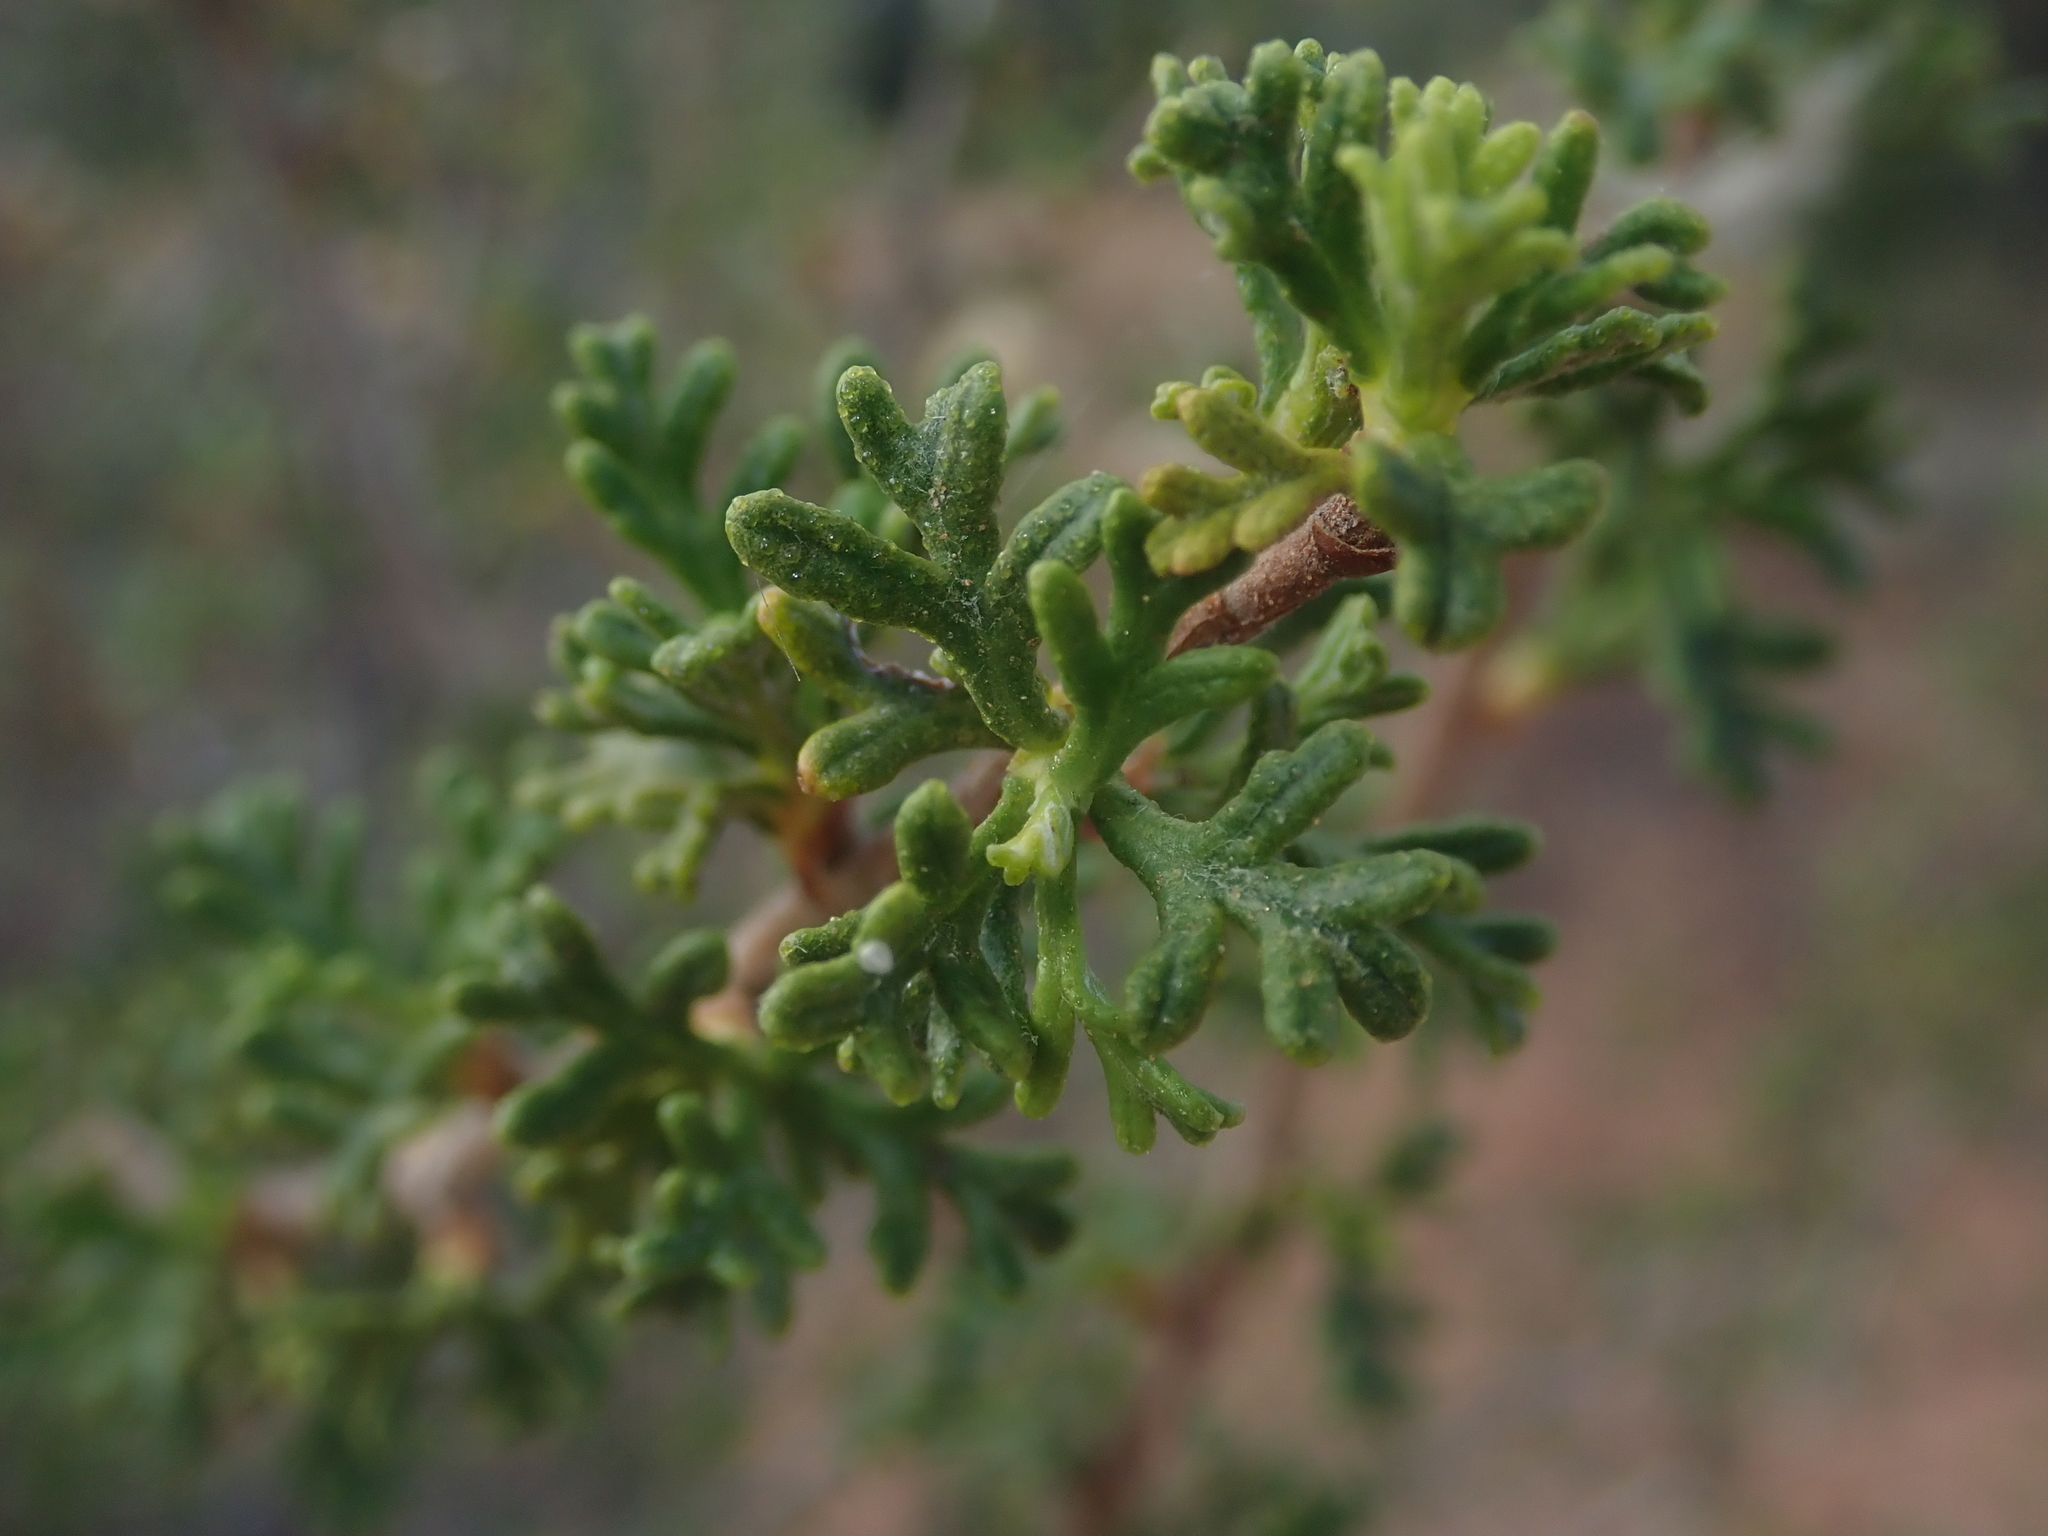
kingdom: Plantae
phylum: Tracheophyta
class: Magnoliopsida
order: Rosales
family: Rosaceae
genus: Purshia
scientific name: Purshia stansburiana
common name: Stansbury's cliffrose
